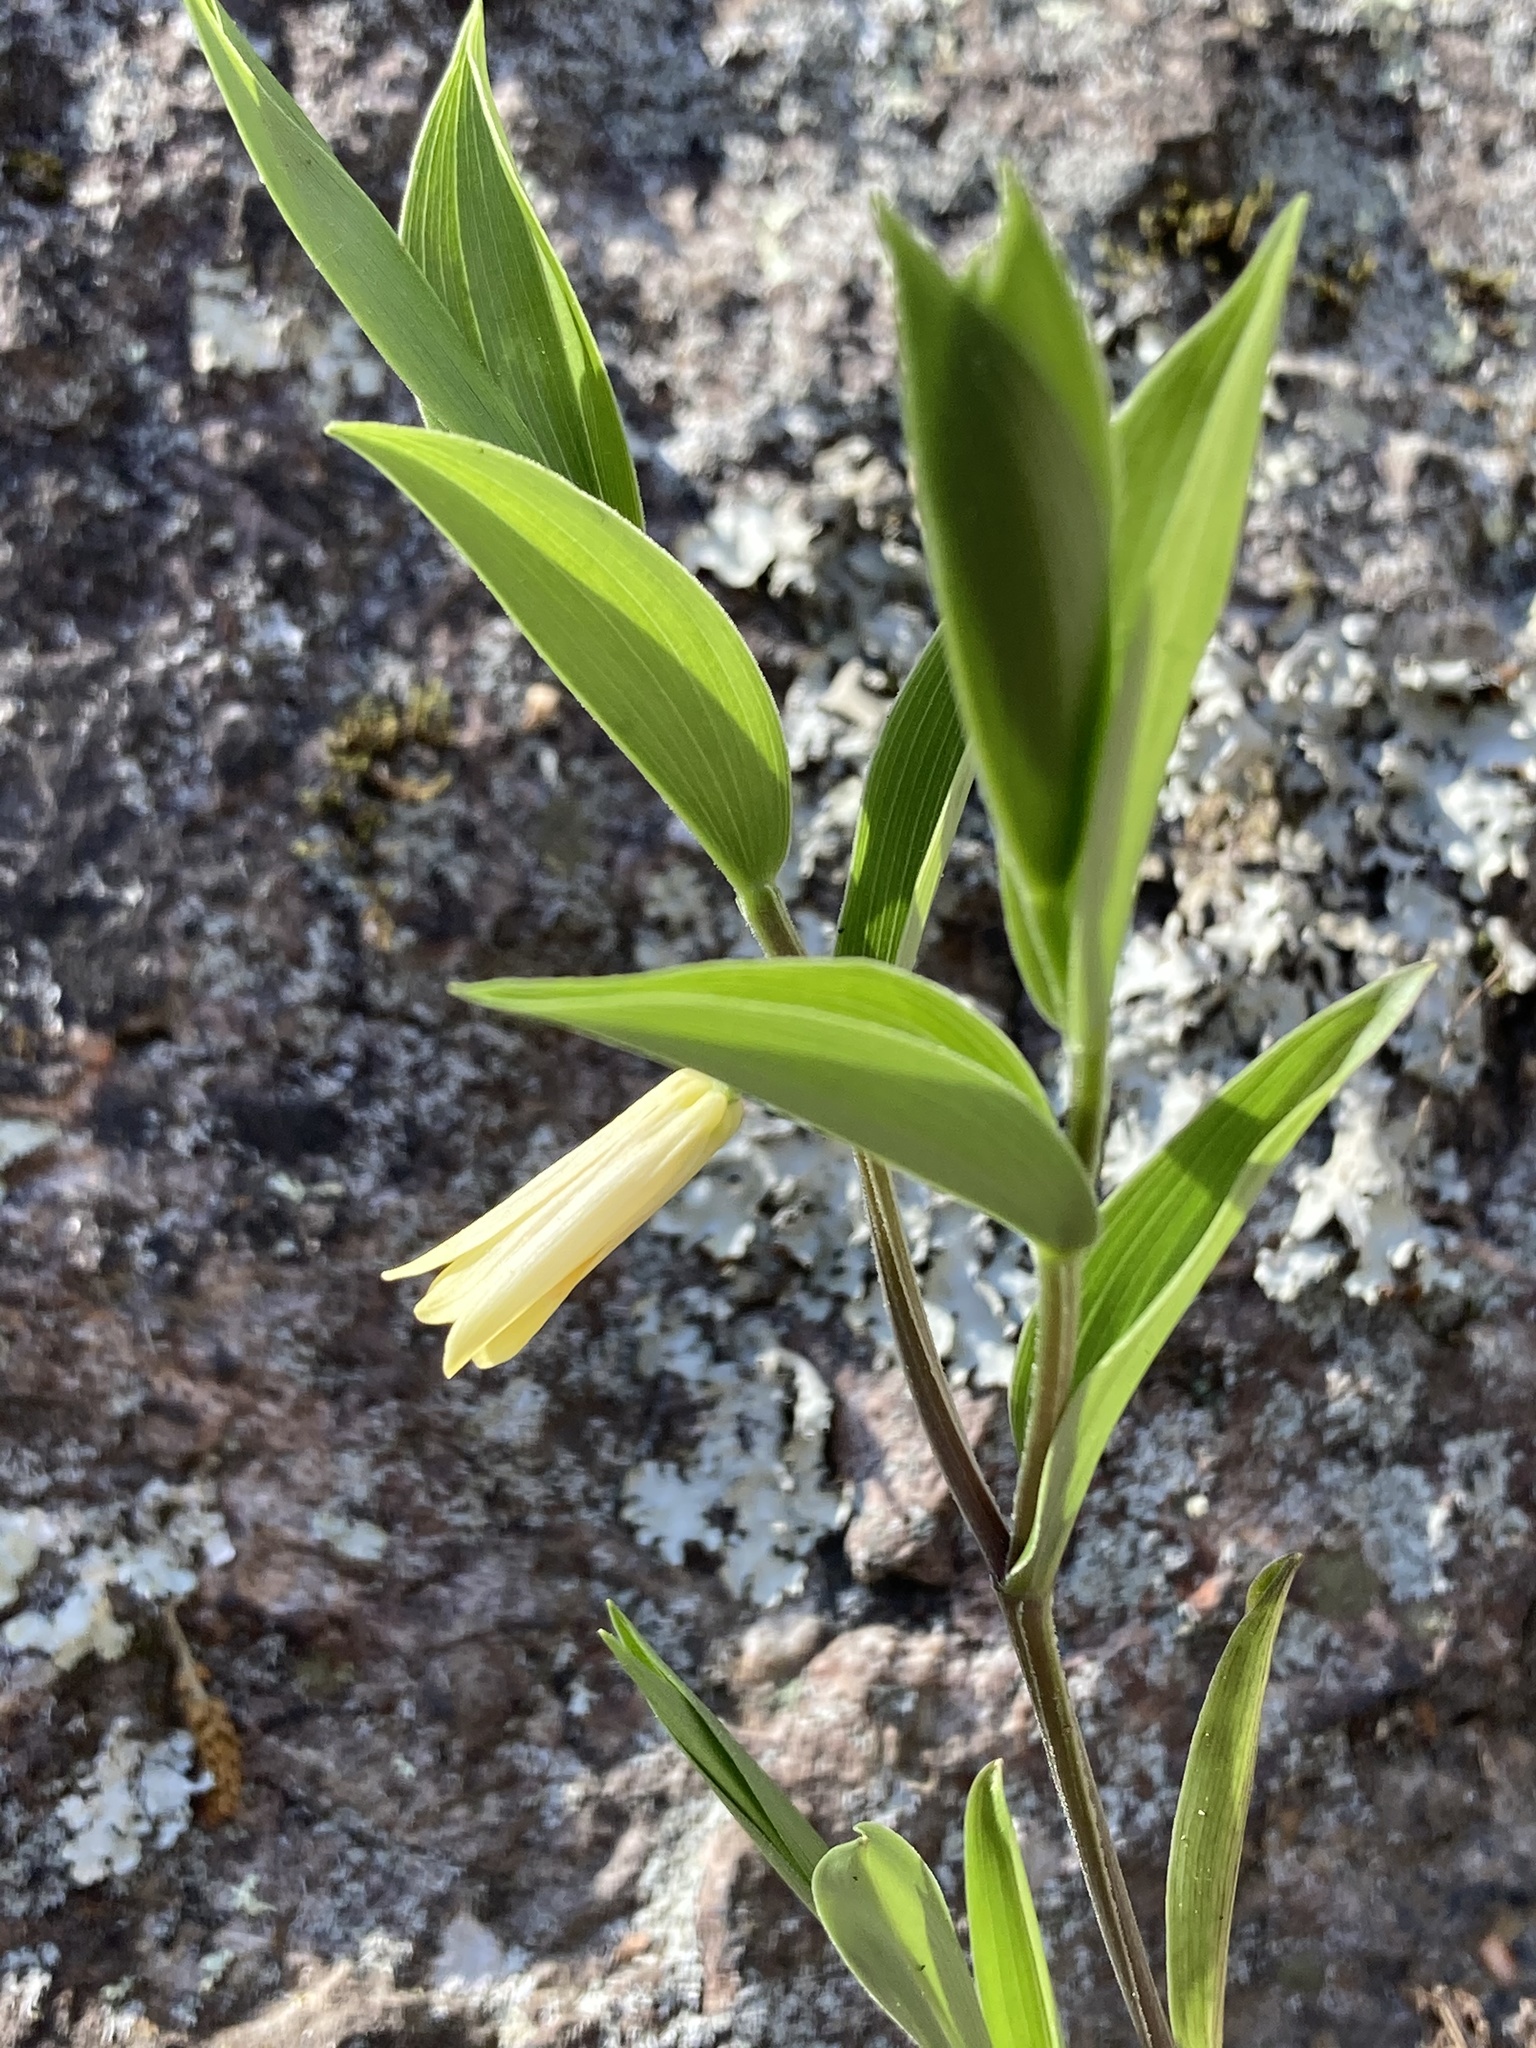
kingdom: Plantae
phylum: Tracheophyta
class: Liliopsida
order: Liliales
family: Colchicaceae
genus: Uvularia
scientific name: Uvularia puberula
